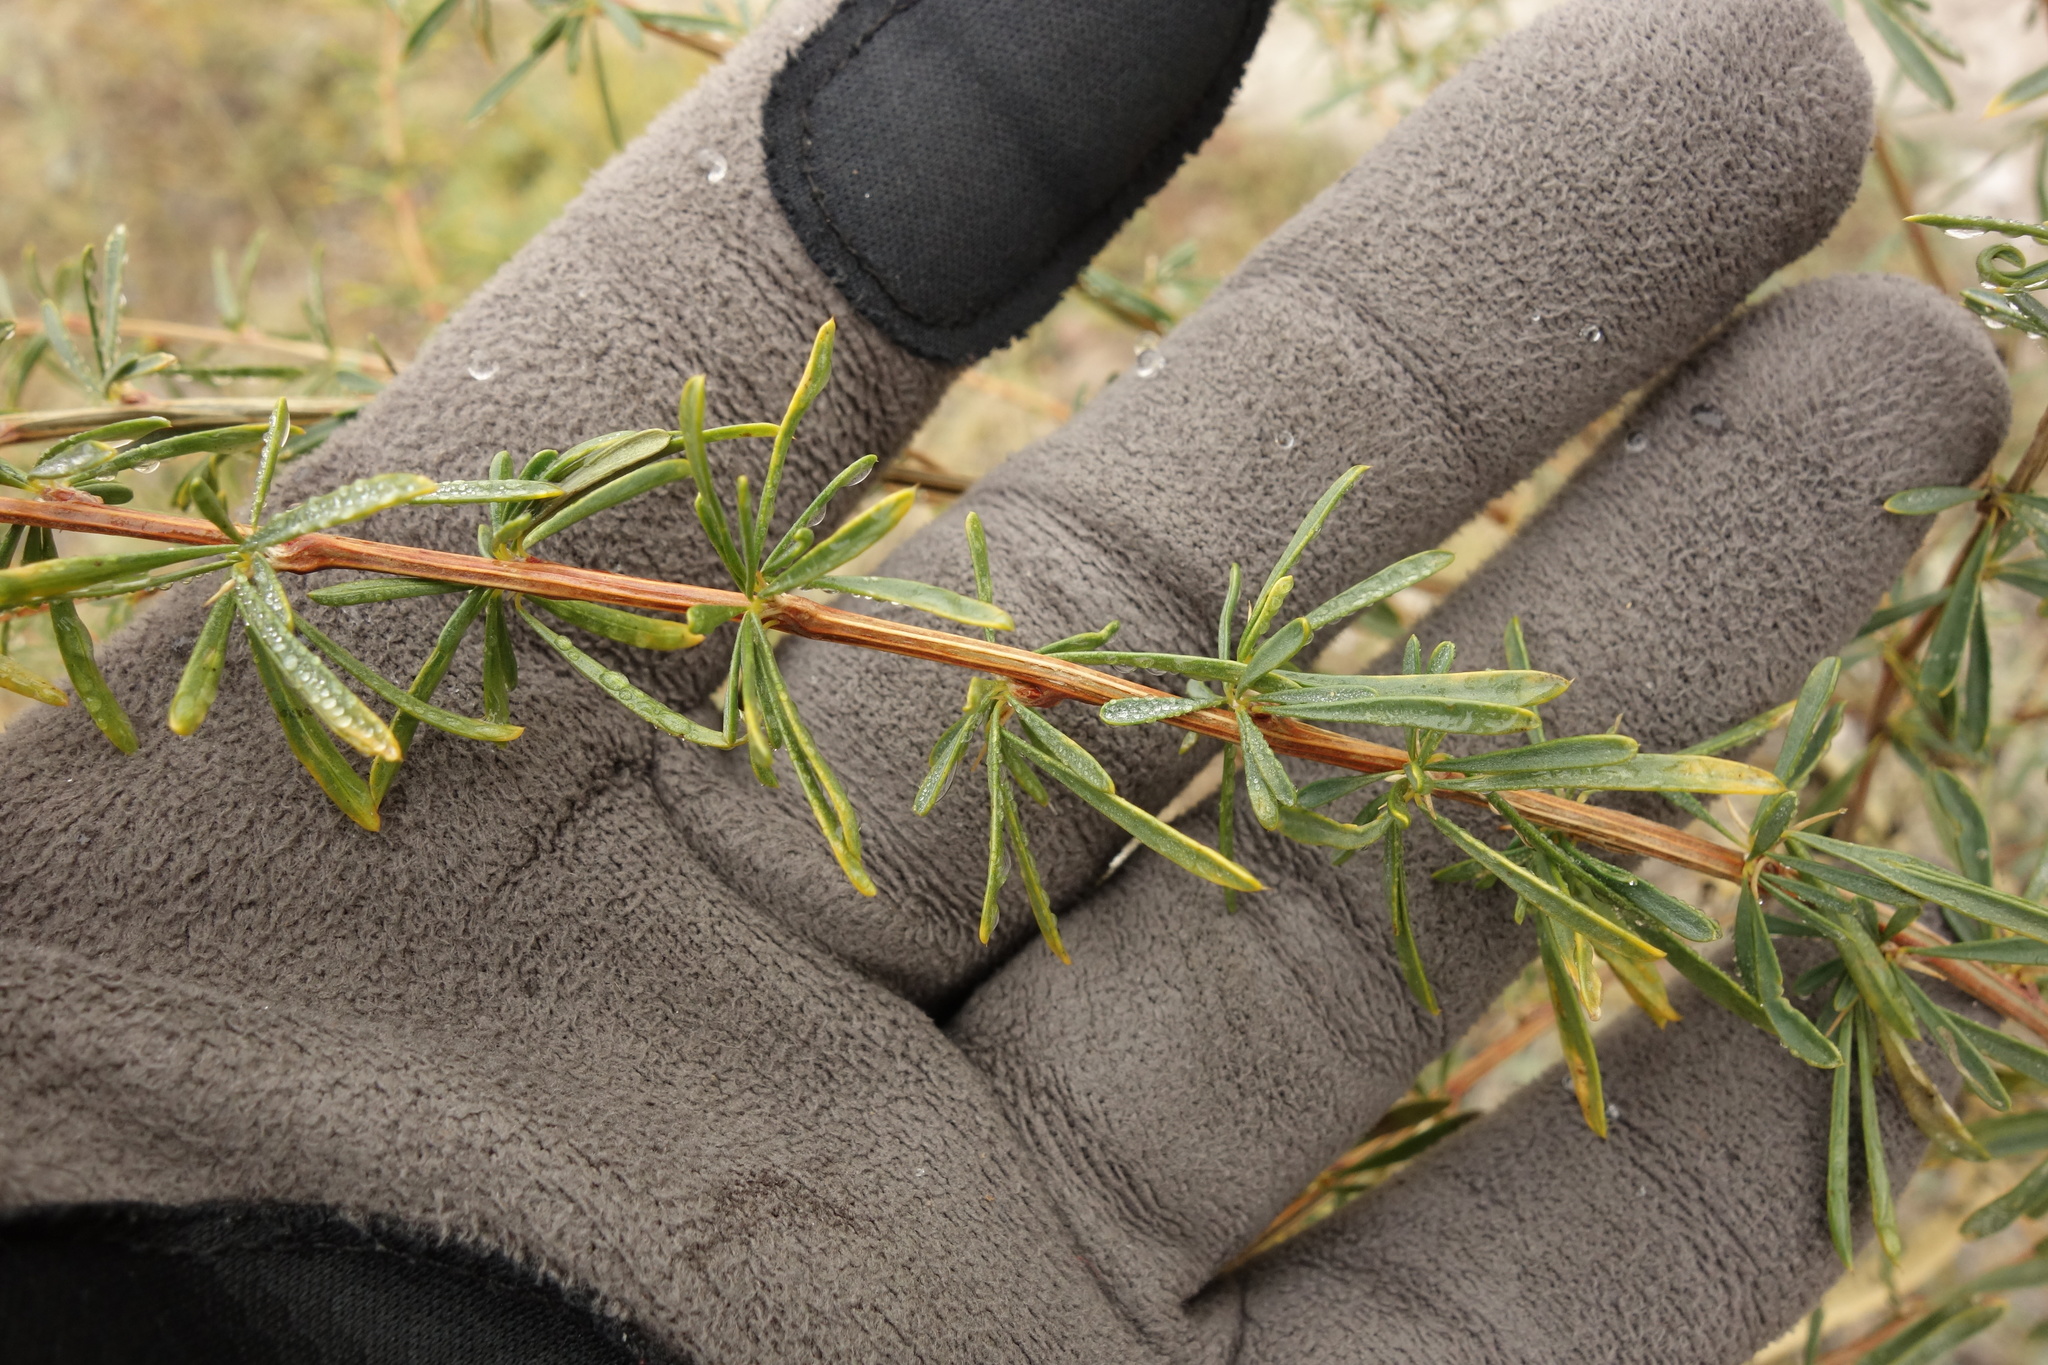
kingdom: Plantae
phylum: Tracheophyta
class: Magnoliopsida
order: Fabales
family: Fabaceae
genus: Caragana
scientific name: Caragana pygmaea
